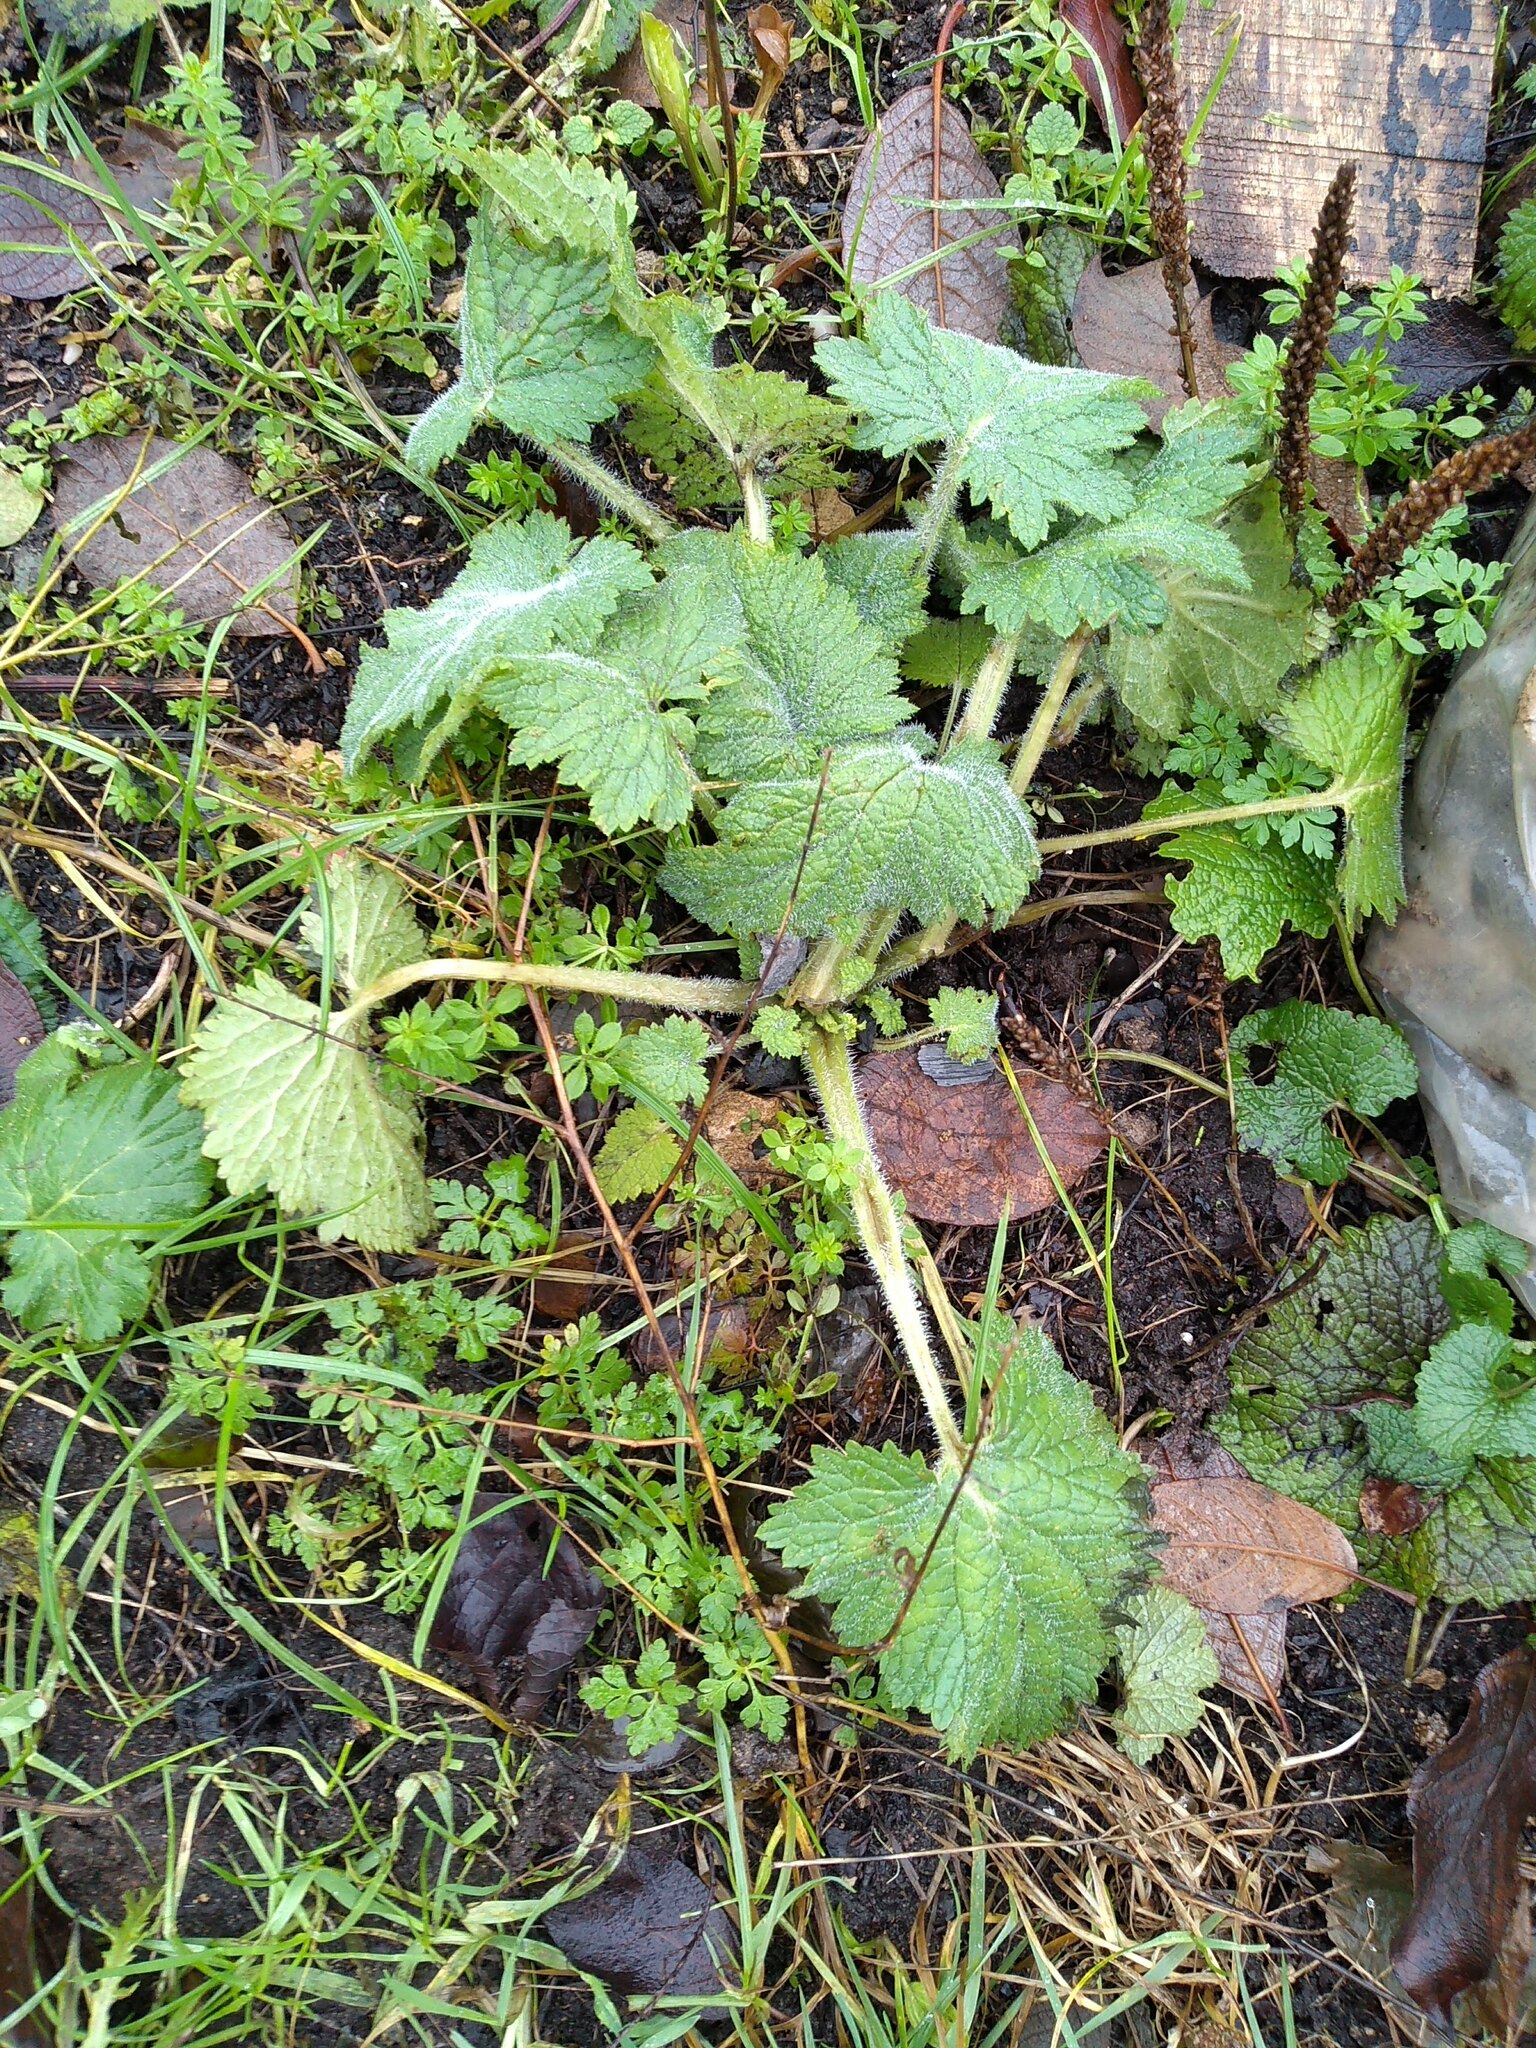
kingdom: Plantae
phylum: Tracheophyta
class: Magnoliopsida
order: Lamiales
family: Scrophulariaceae
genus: Scrophularia
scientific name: Scrophularia vernalis
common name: Yellow figwort
